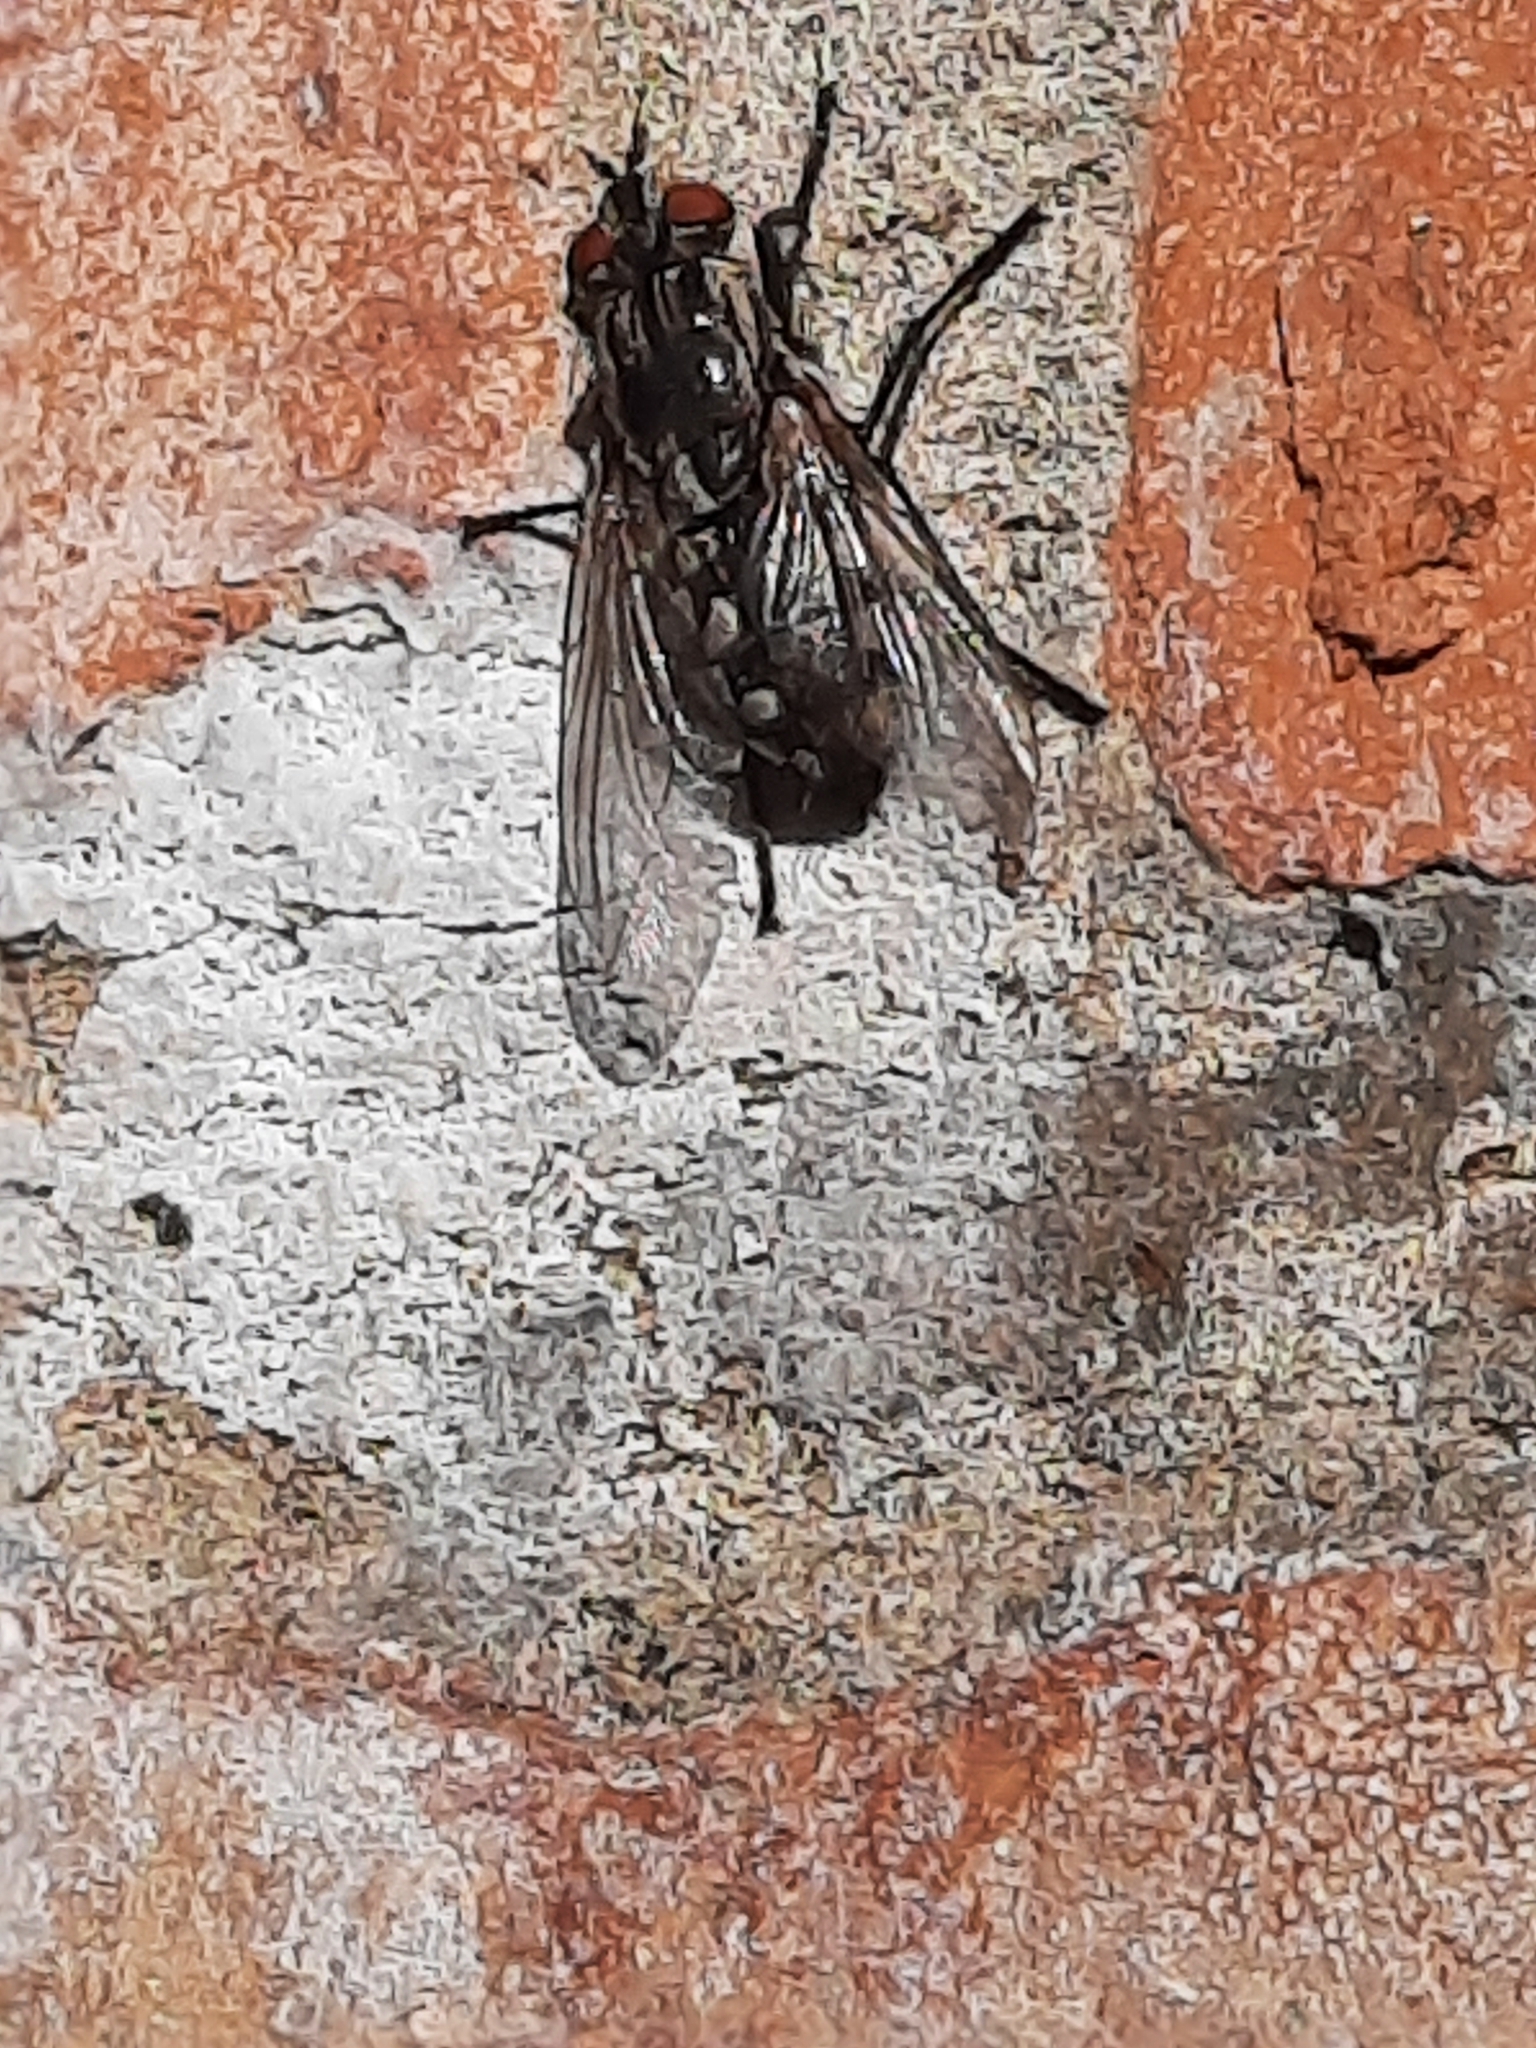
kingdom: Animalia
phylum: Arthropoda
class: Insecta
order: Diptera
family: Sarcophagidae
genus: Sarcophaga
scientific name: Sarcophaga
